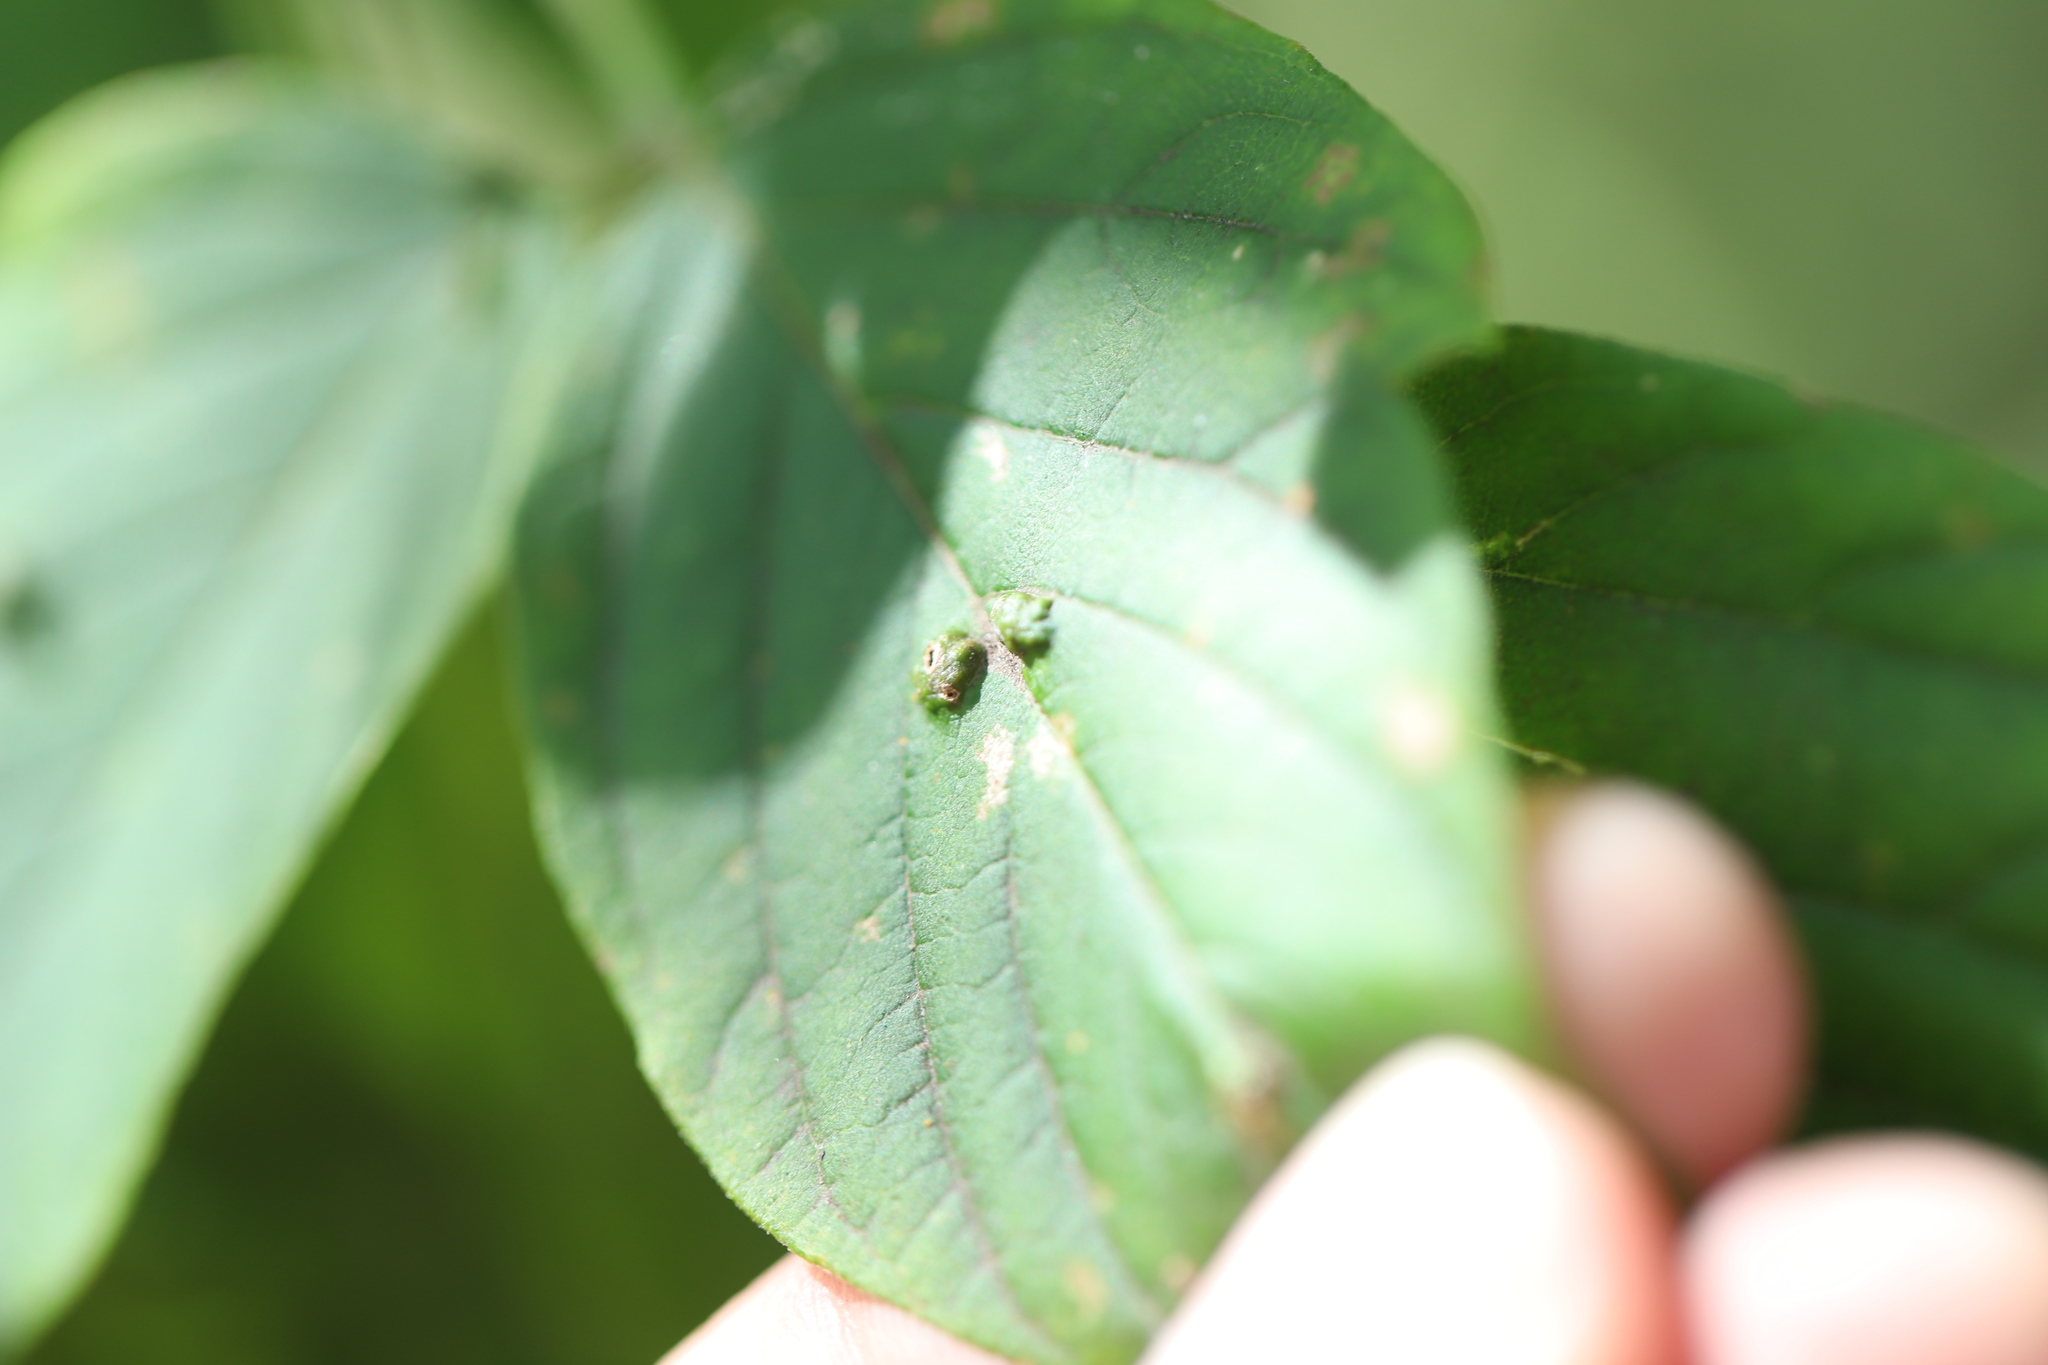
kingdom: Animalia
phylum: Arthropoda
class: Arachnida
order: Trombidiformes
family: Eriophyidae
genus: Aceria
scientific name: Aceria
